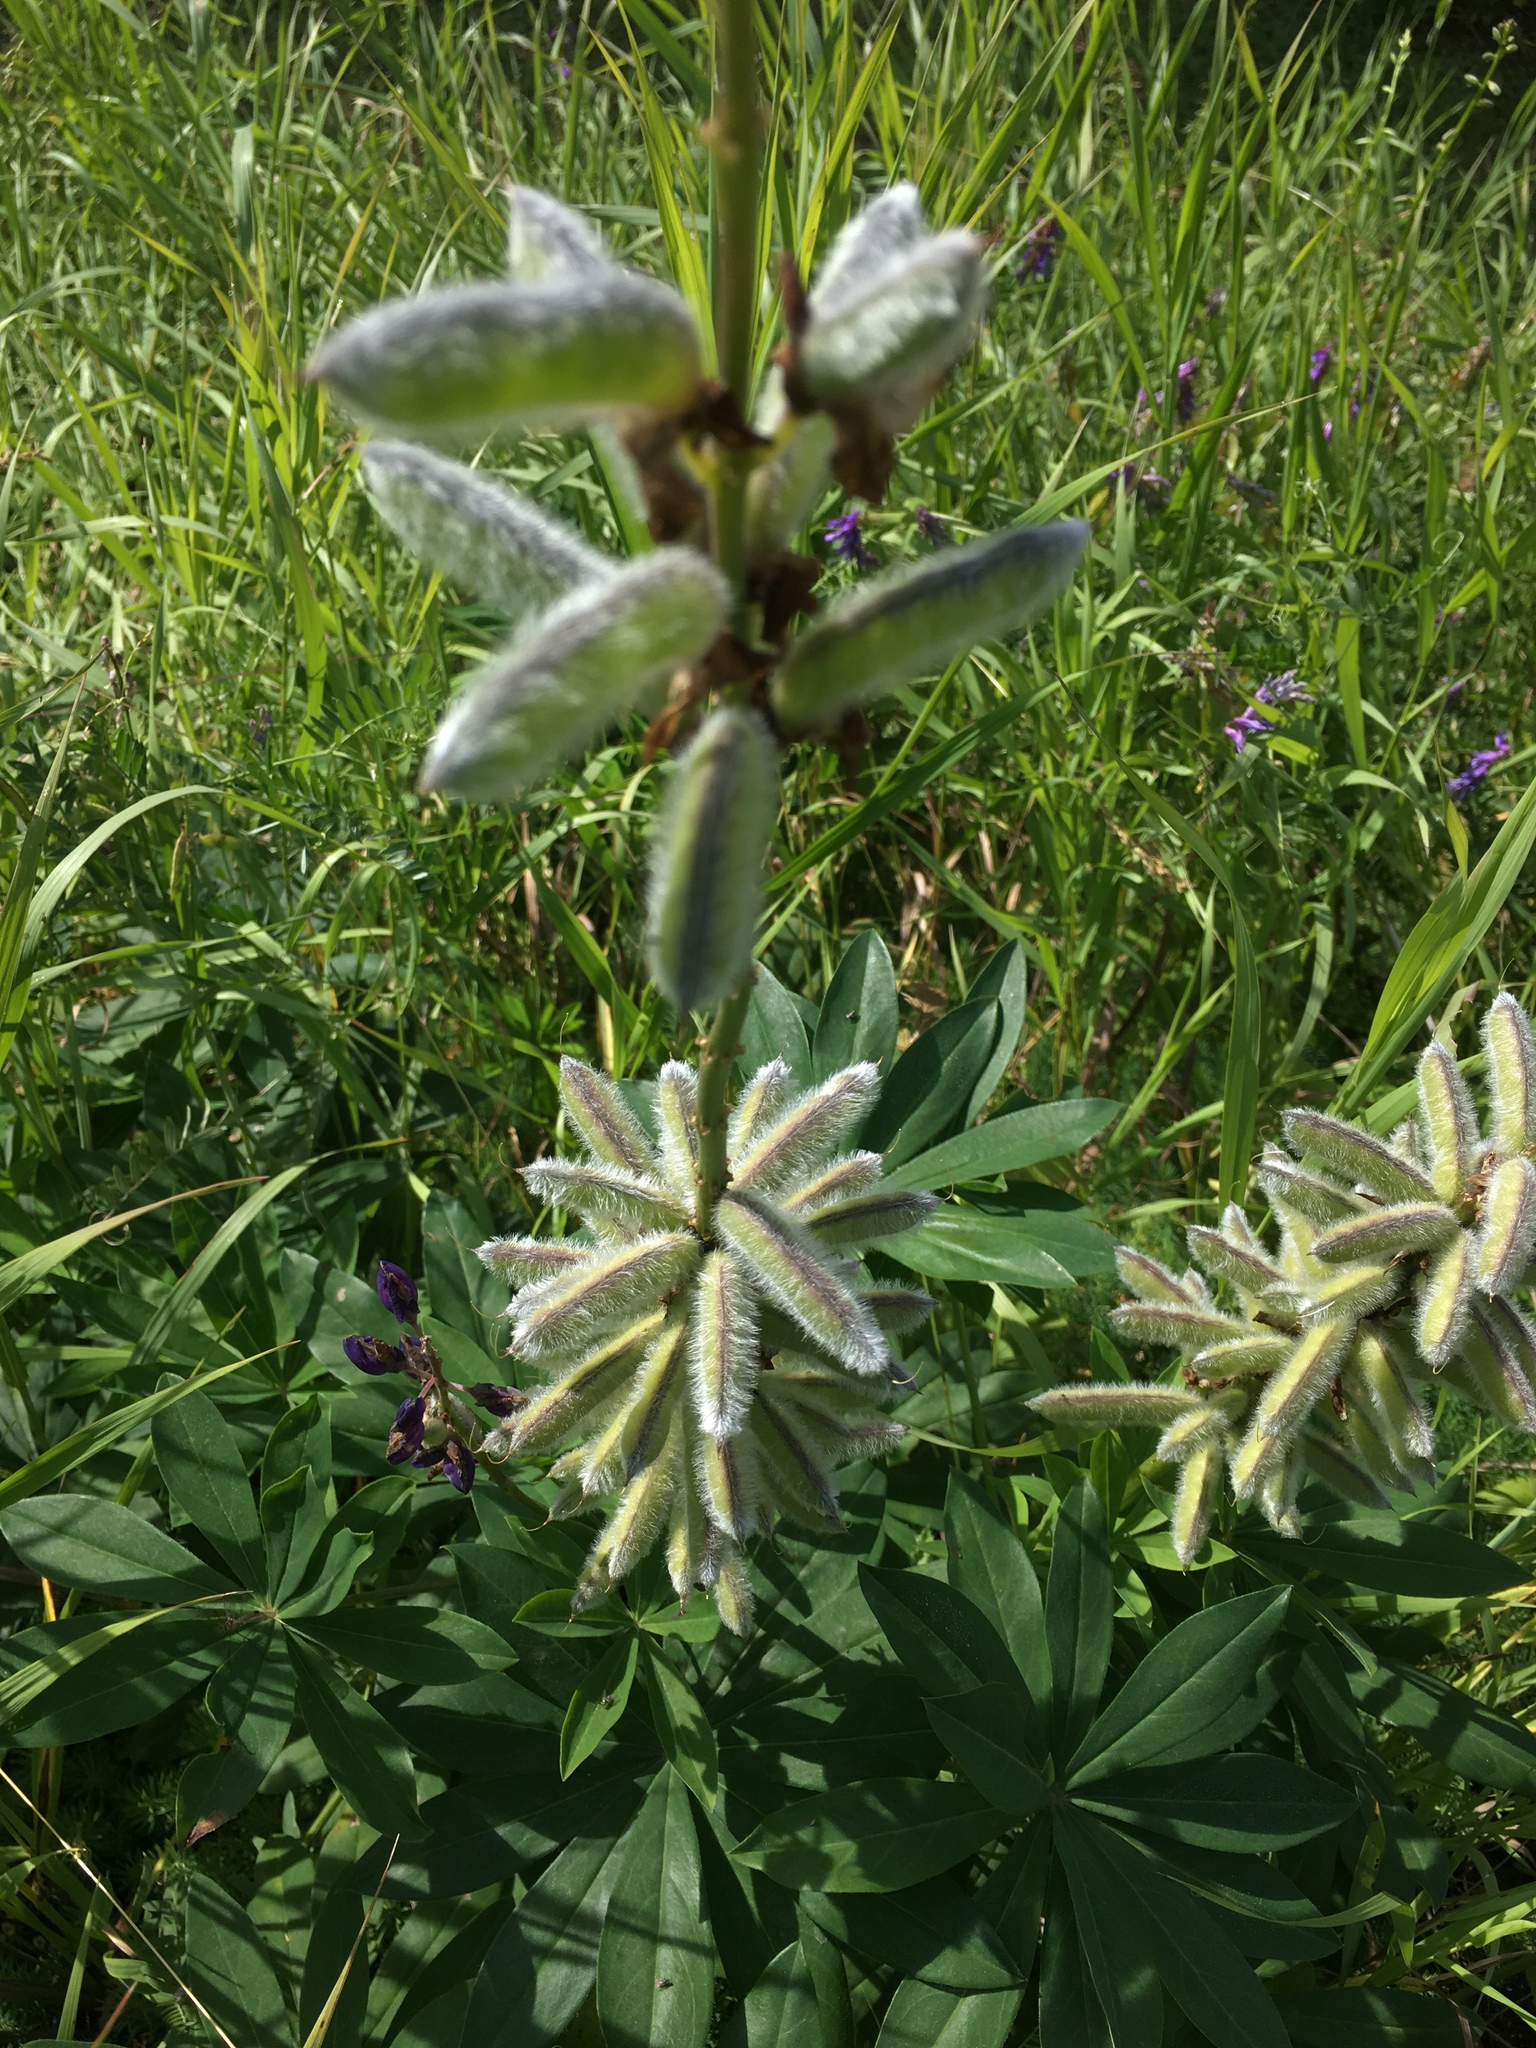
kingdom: Plantae
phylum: Tracheophyta
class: Magnoliopsida
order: Fabales
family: Fabaceae
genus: Lupinus
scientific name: Lupinus polyphyllus
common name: Garden lupin
